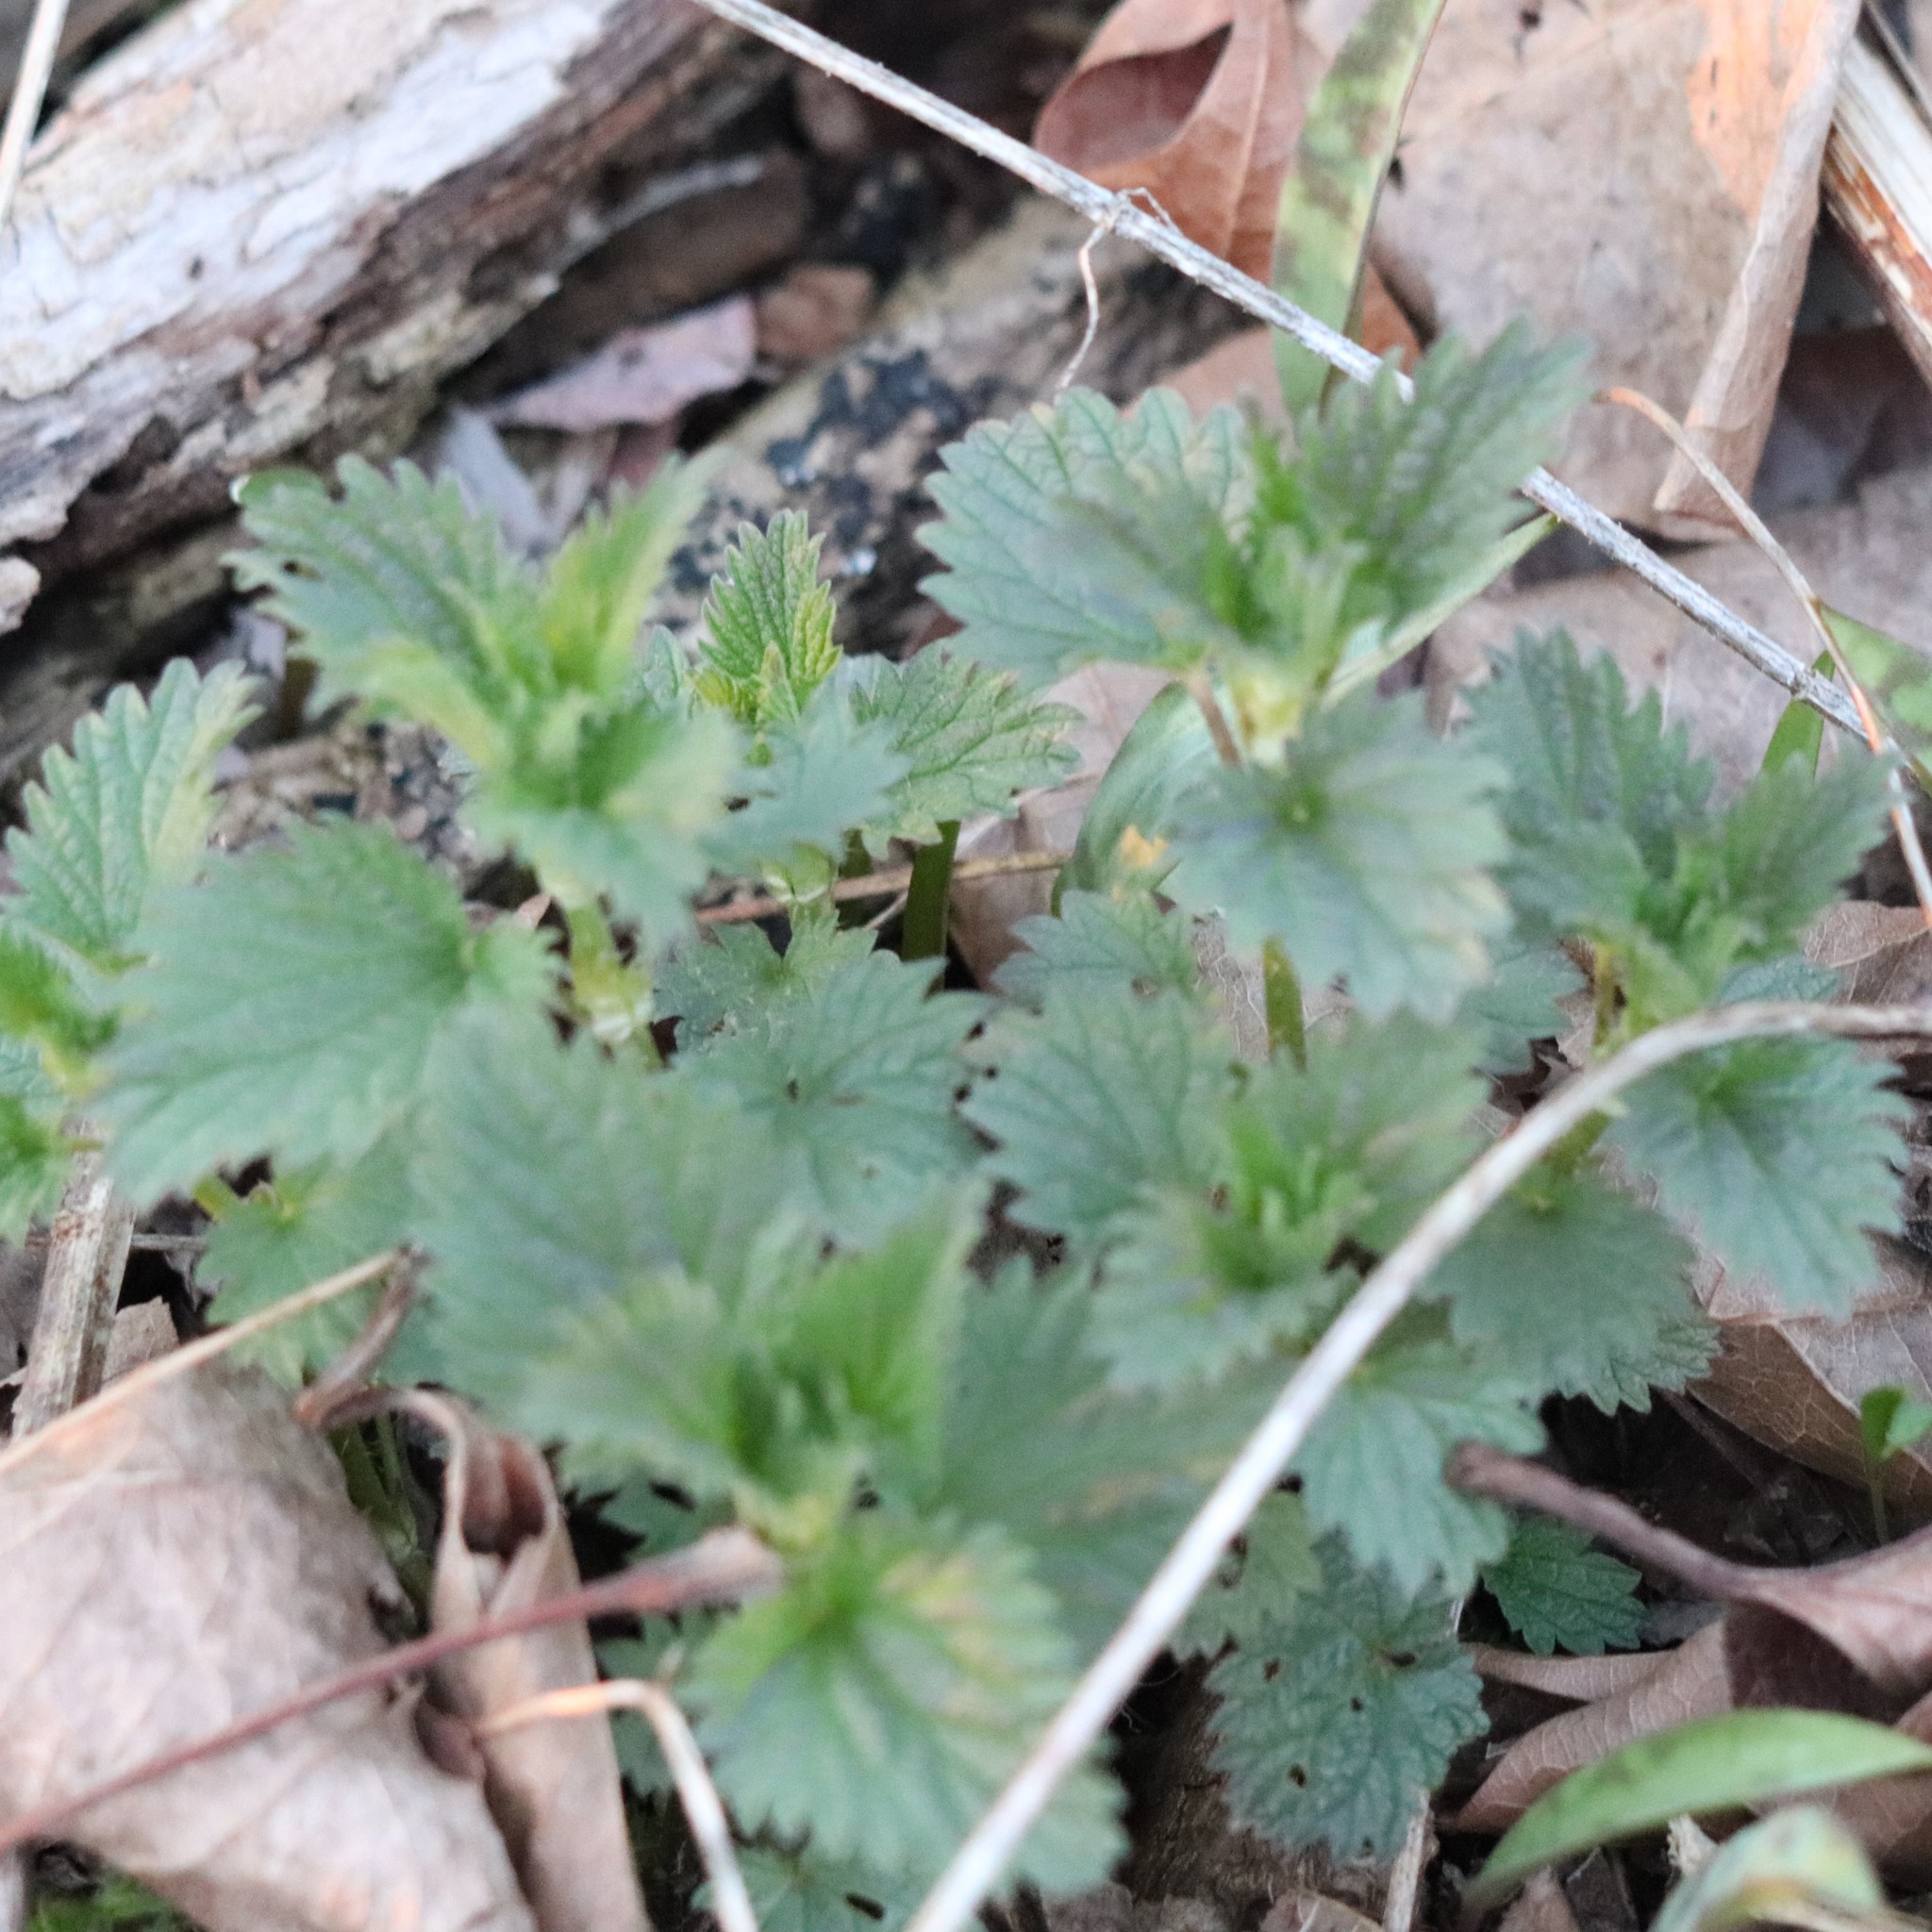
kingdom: Plantae
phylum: Tracheophyta
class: Magnoliopsida
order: Rosales
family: Urticaceae
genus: Urtica
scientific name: Urtica dioica
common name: Common nettle
